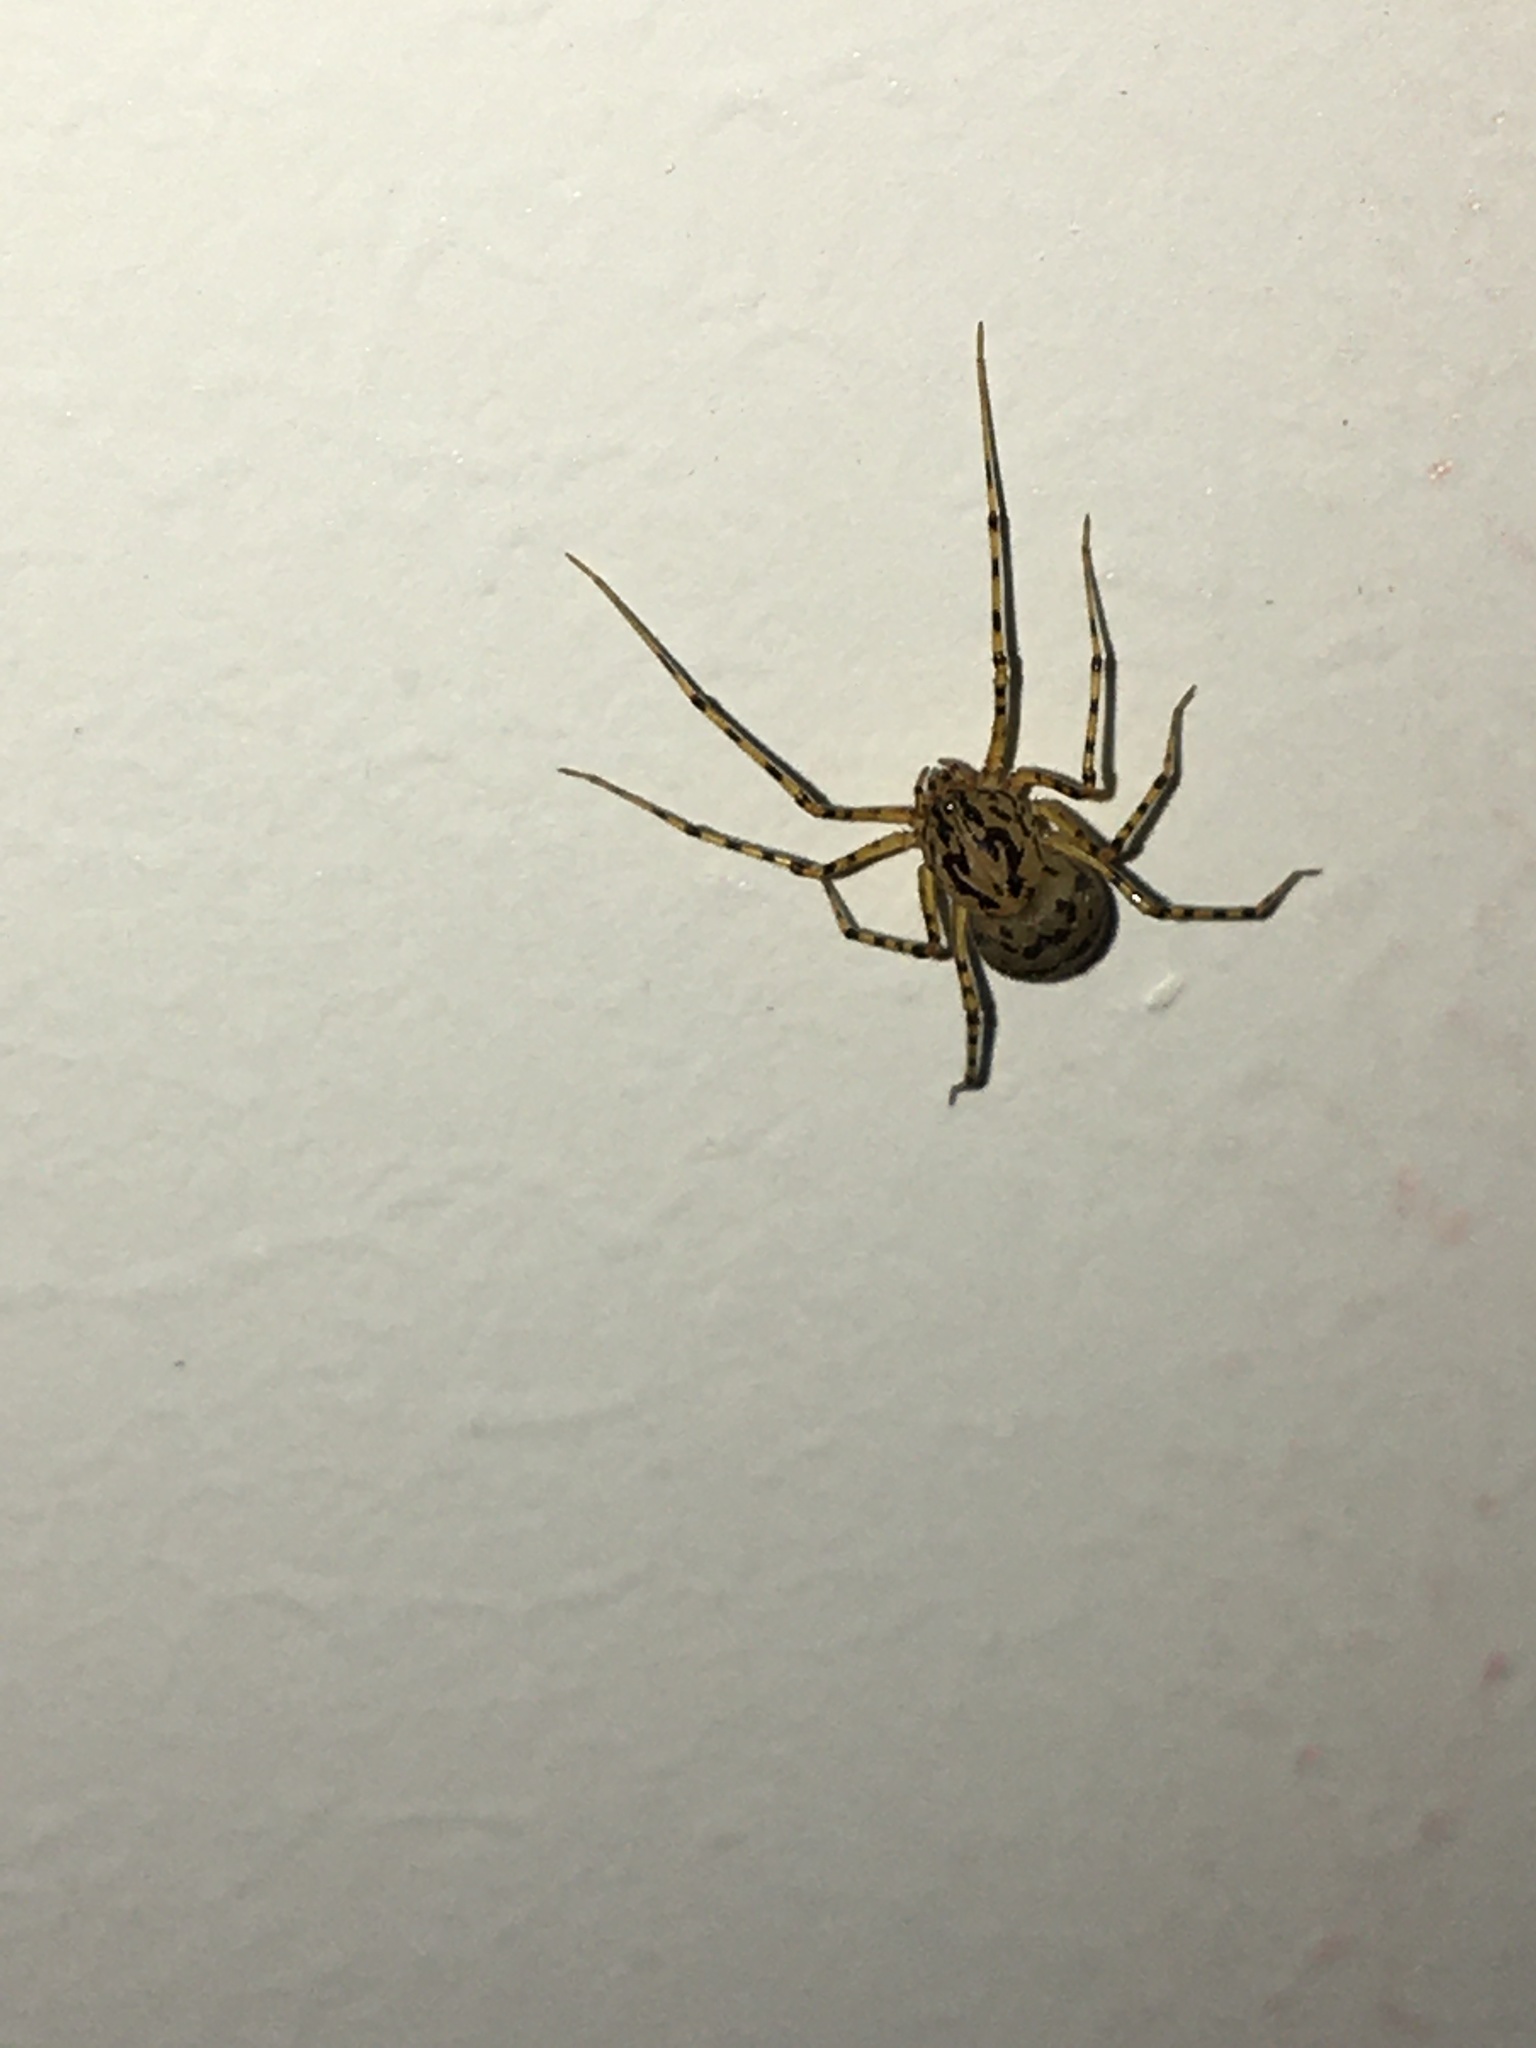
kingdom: Animalia
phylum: Arthropoda
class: Arachnida
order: Araneae
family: Scytodidae
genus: Scytodes
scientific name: Scytodes thoracica
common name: Spitting spider
